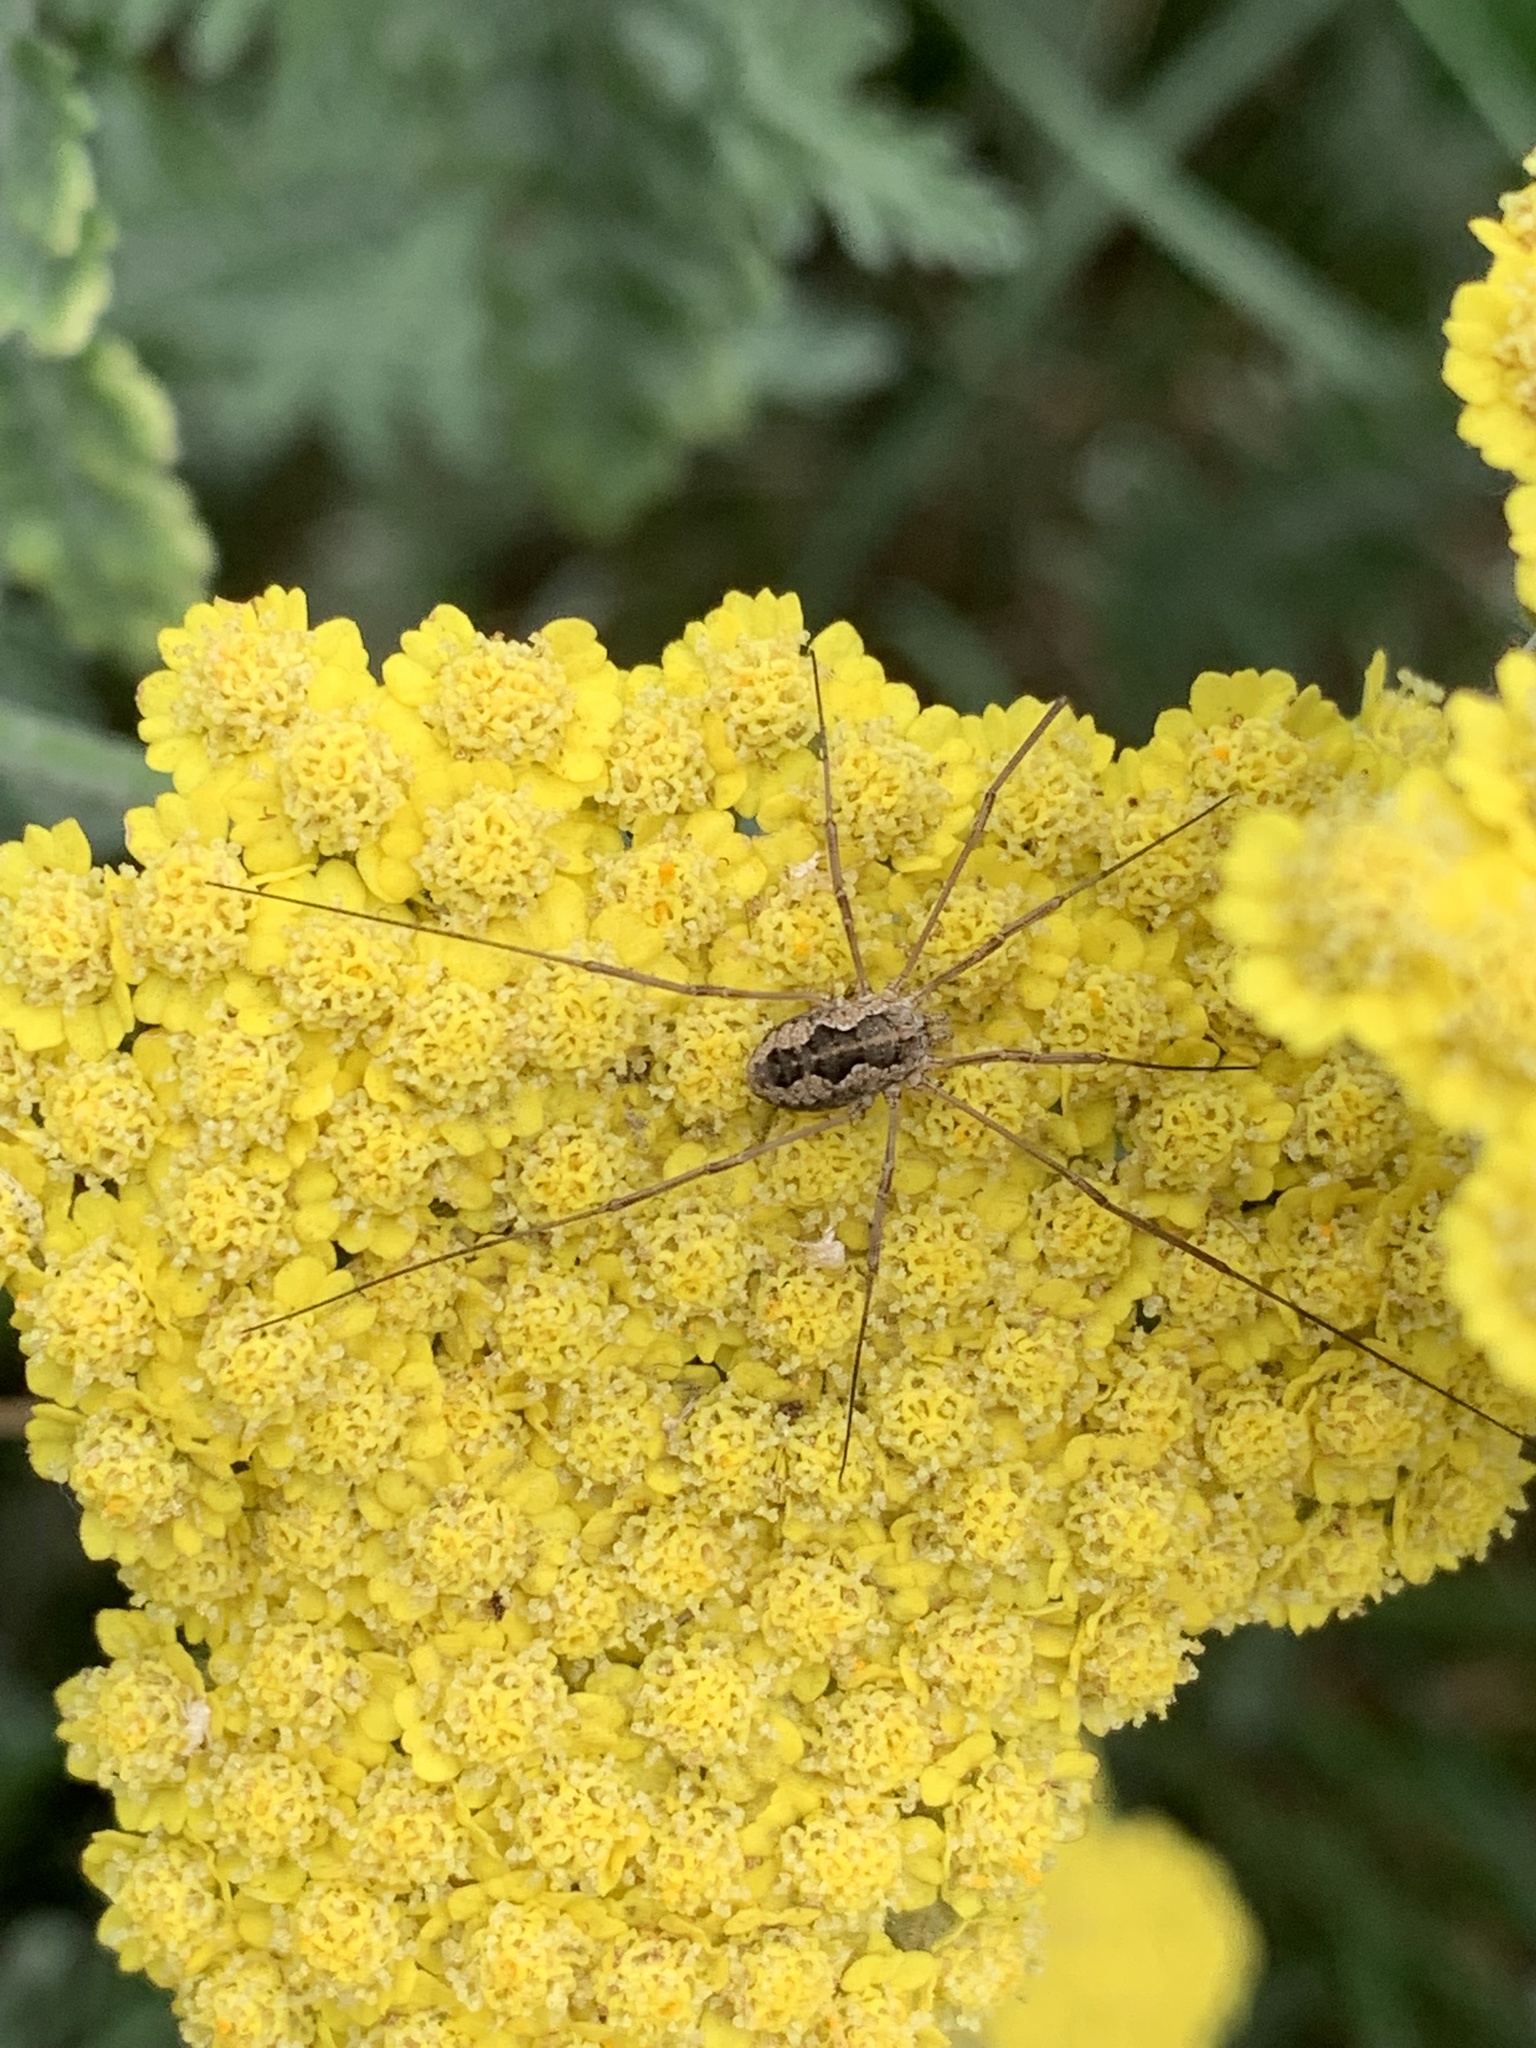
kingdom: Animalia
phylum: Arthropoda
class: Arachnida
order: Opiliones
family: Phalangiidae
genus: Phalangium
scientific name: Phalangium opilio
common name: Daddy longleg
